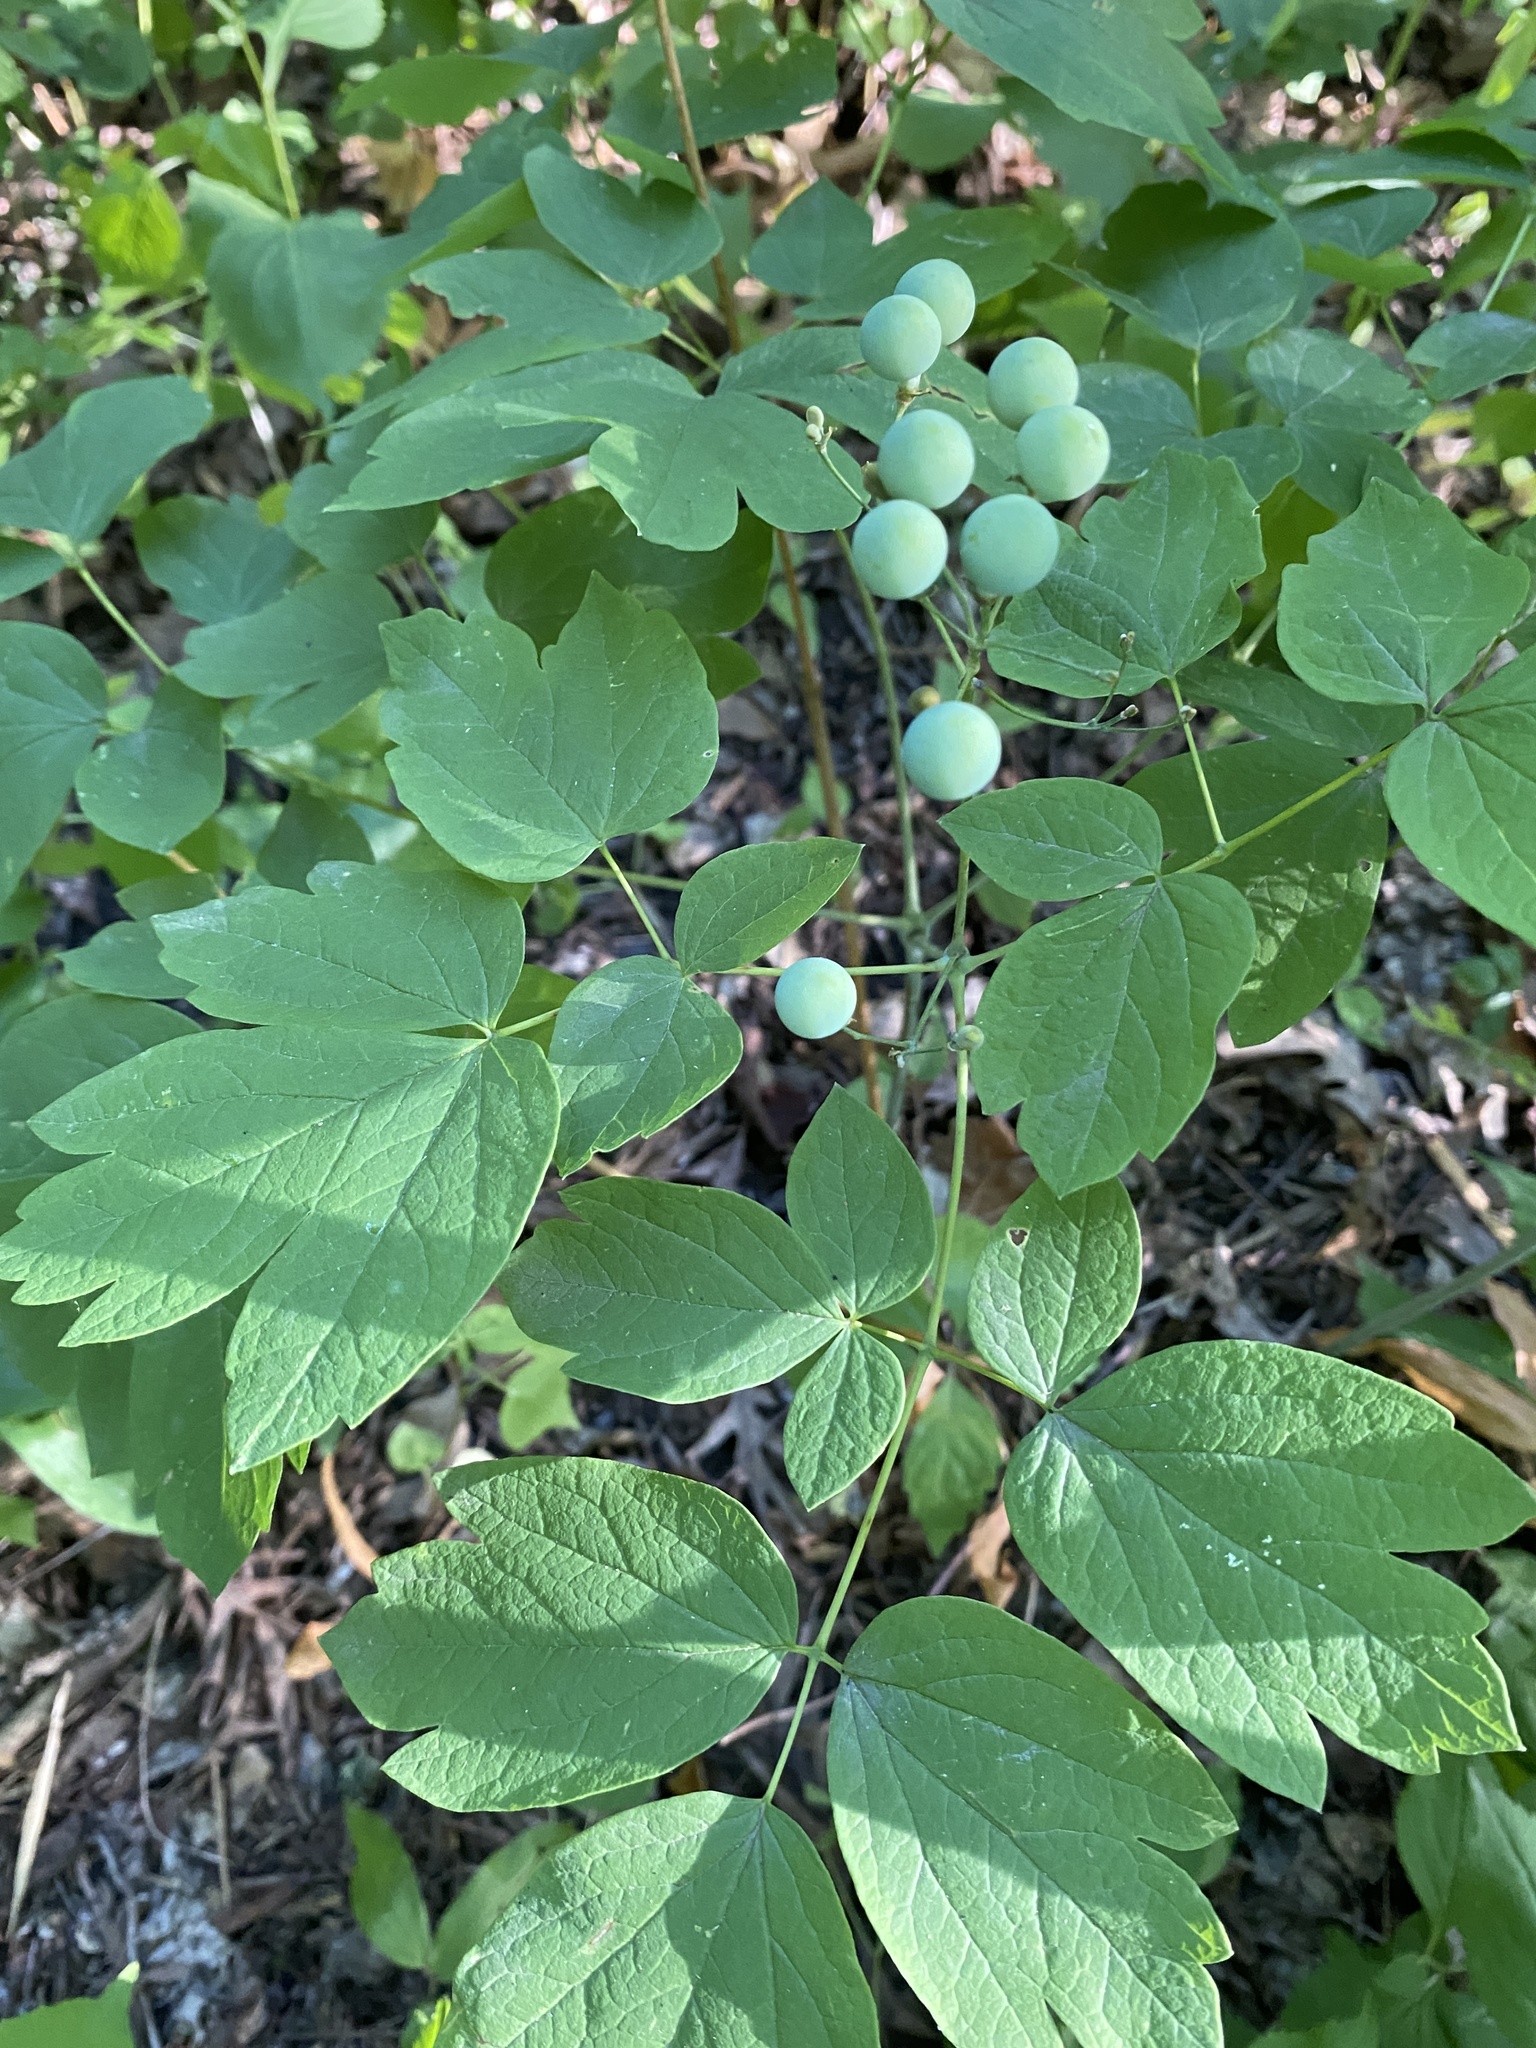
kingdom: Plantae
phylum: Tracheophyta
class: Magnoliopsida
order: Ranunculales
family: Berberidaceae
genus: Caulophyllum
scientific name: Caulophyllum thalictroides
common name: Blue cohosh
